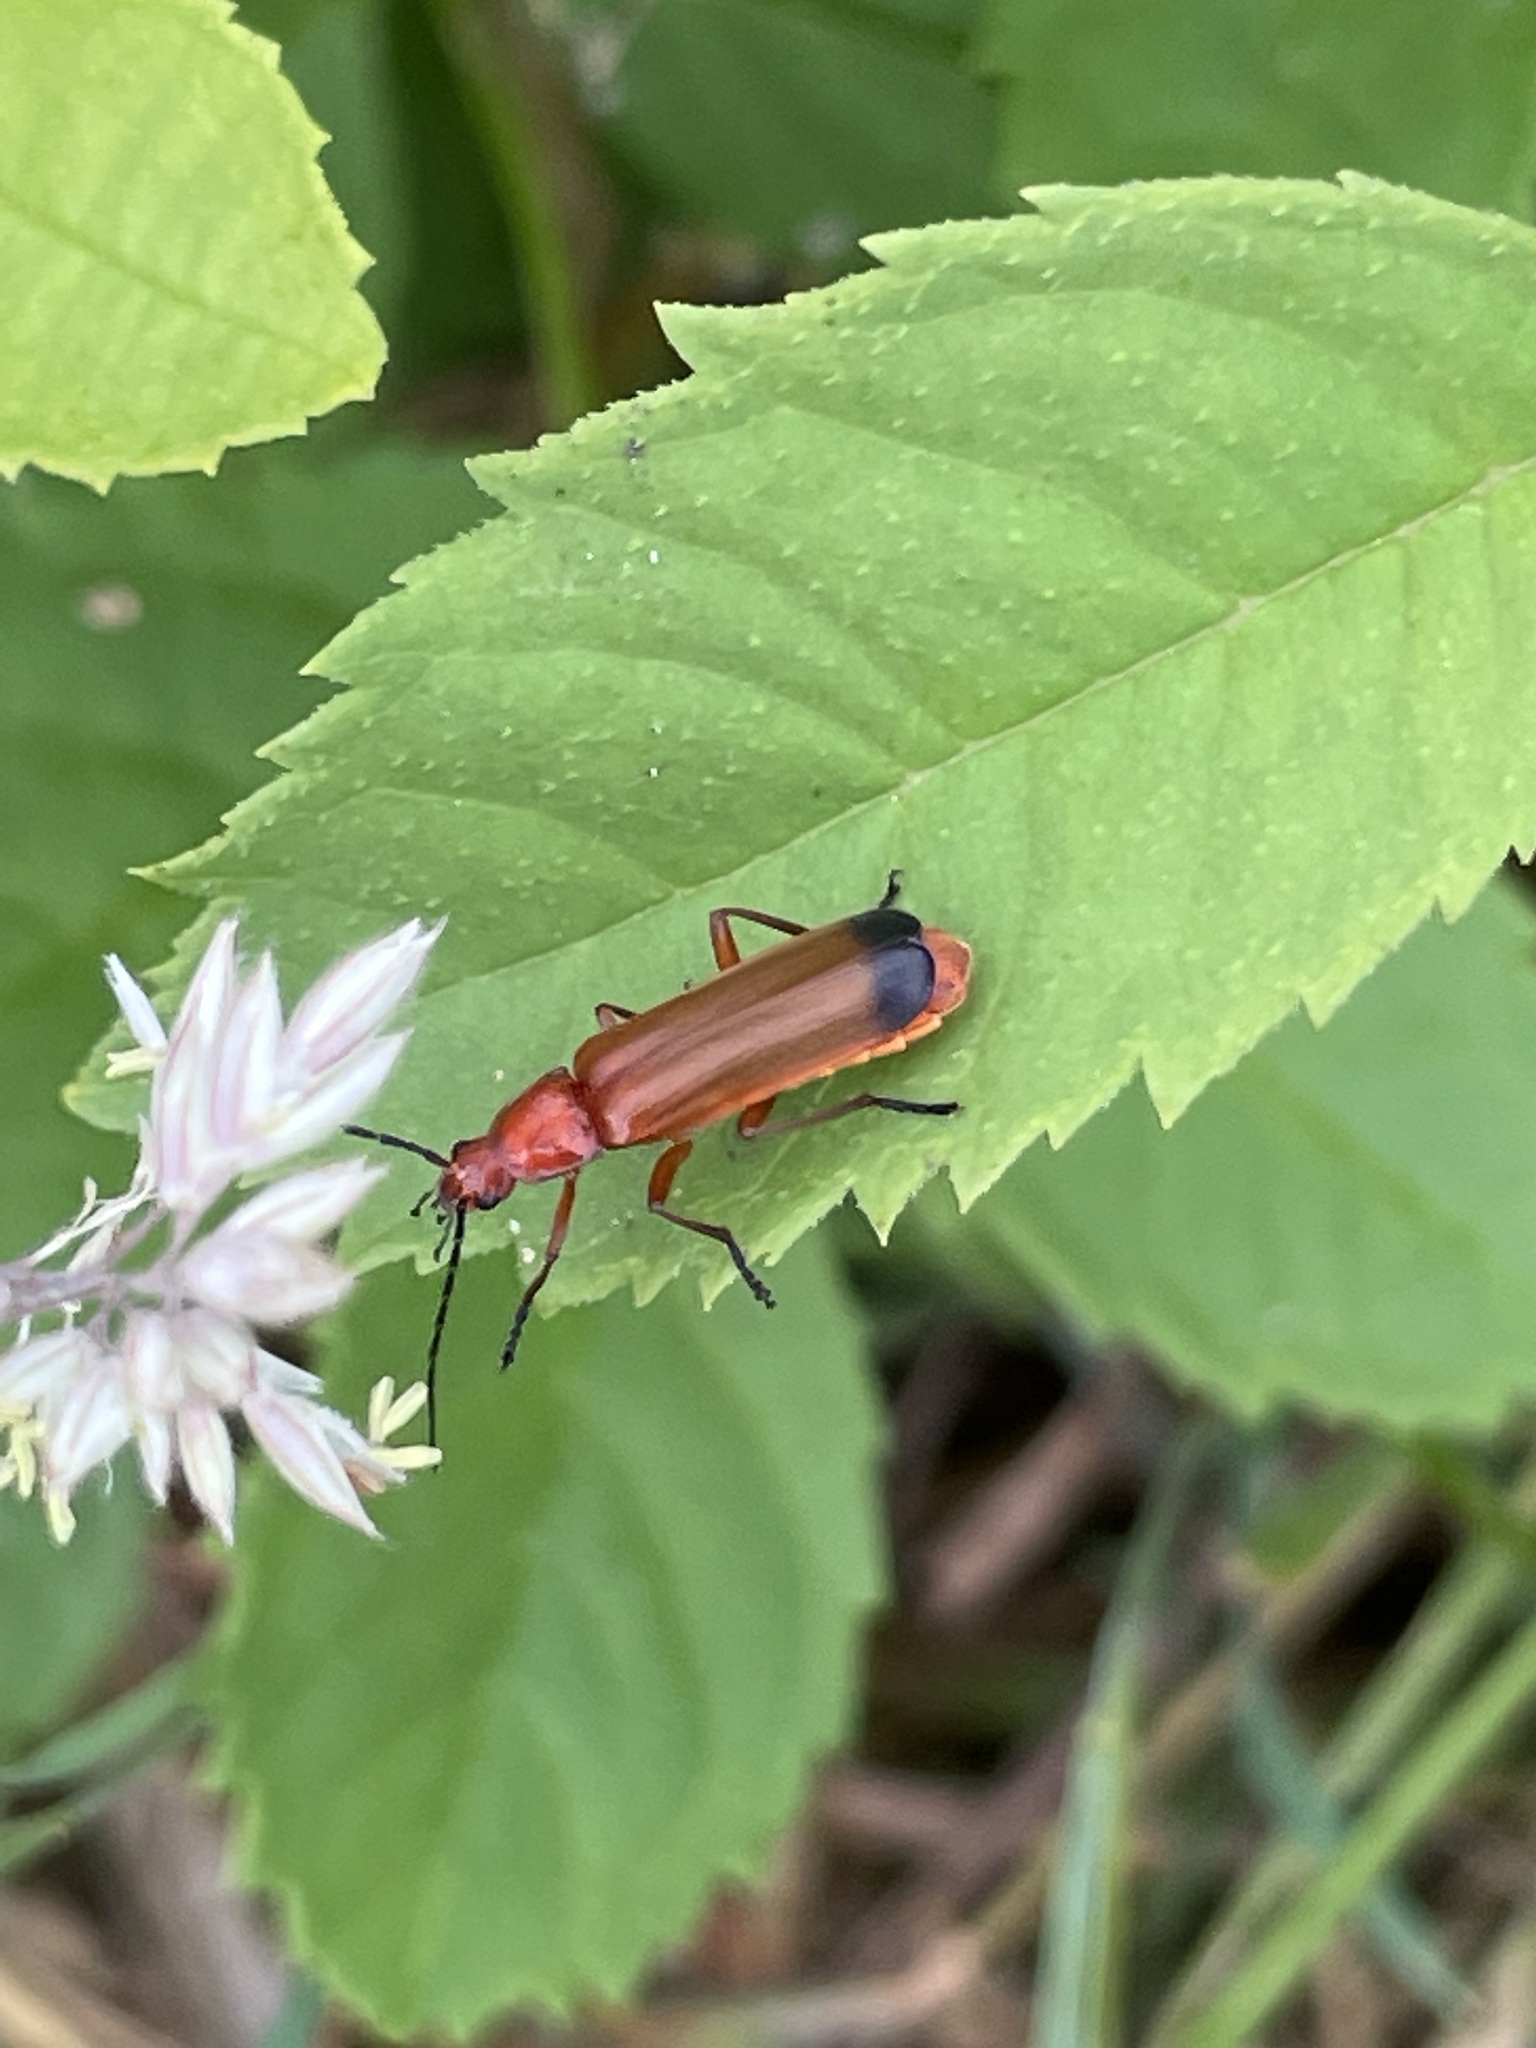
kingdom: Animalia
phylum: Arthropoda
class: Insecta
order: Coleoptera
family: Cantharidae
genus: Rhagonycha
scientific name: Rhagonycha fulva
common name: Common red soldier beetle
